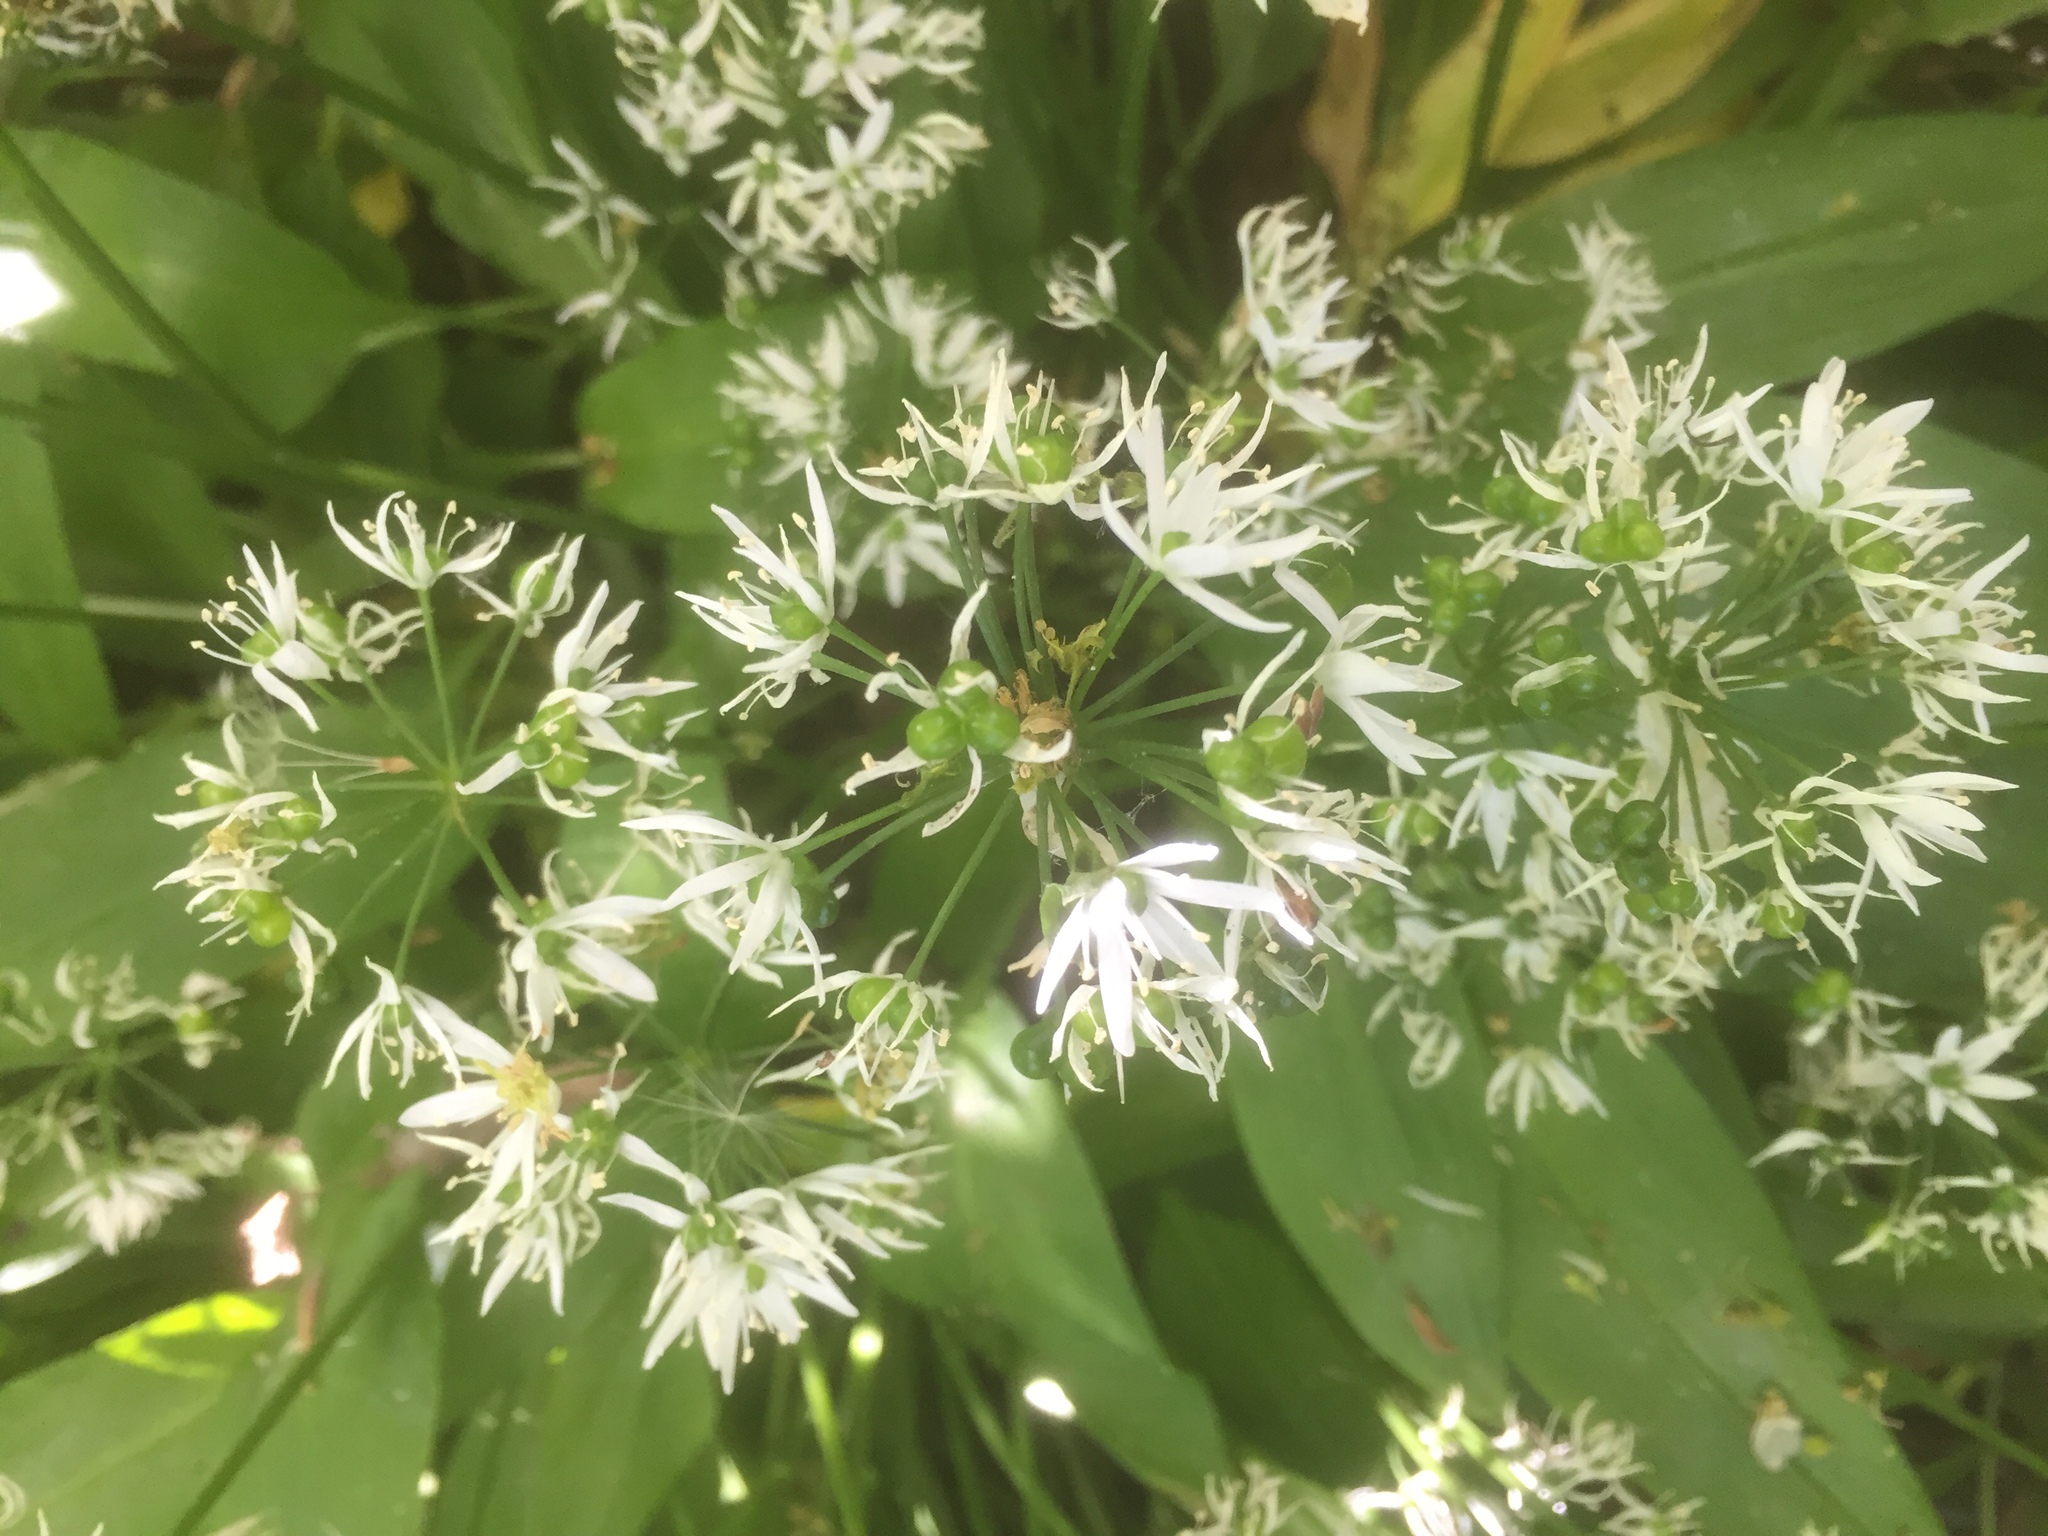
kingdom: Plantae
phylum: Tracheophyta
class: Liliopsida
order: Asparagales
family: Amaryllidaceae
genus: Allium
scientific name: Allium ursinum
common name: Ramsons
